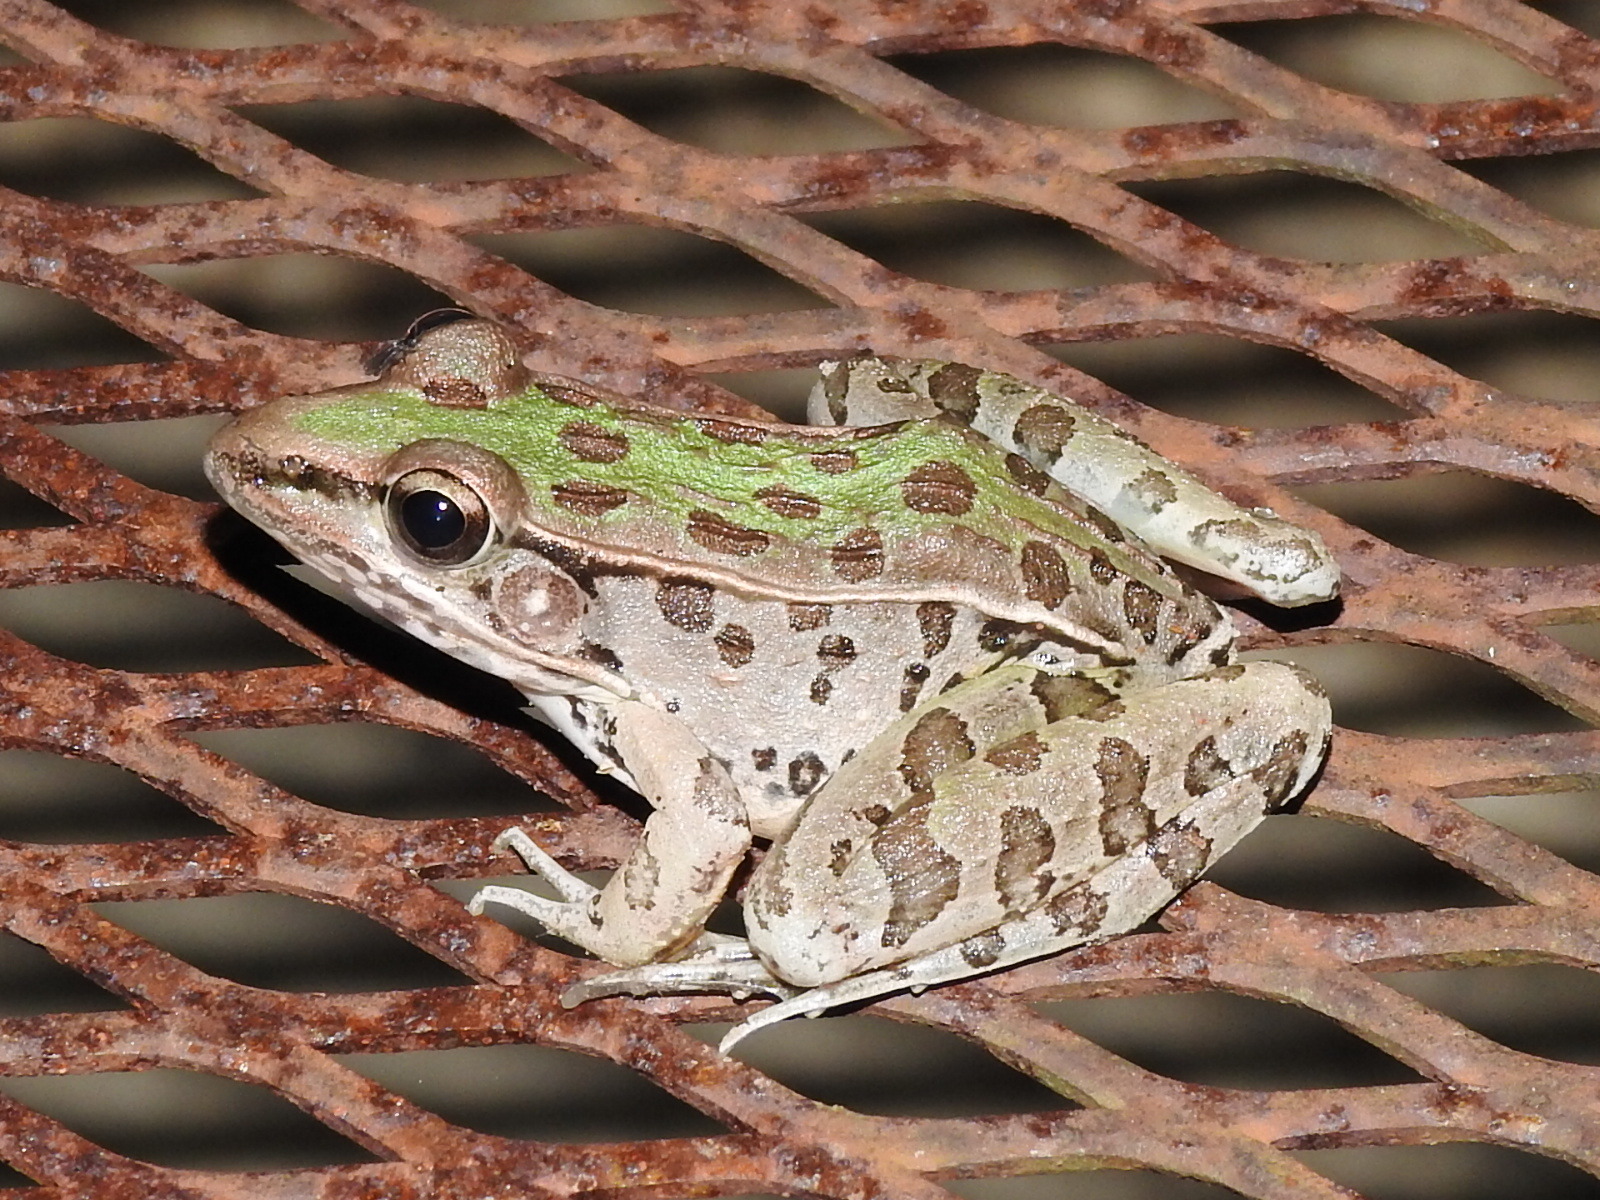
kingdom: Animalia
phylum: Chordata
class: Amphibia
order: Anura
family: Ranidae
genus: Lithobates
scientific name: Lithobates sphenocephalus
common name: Southern leopard frog
